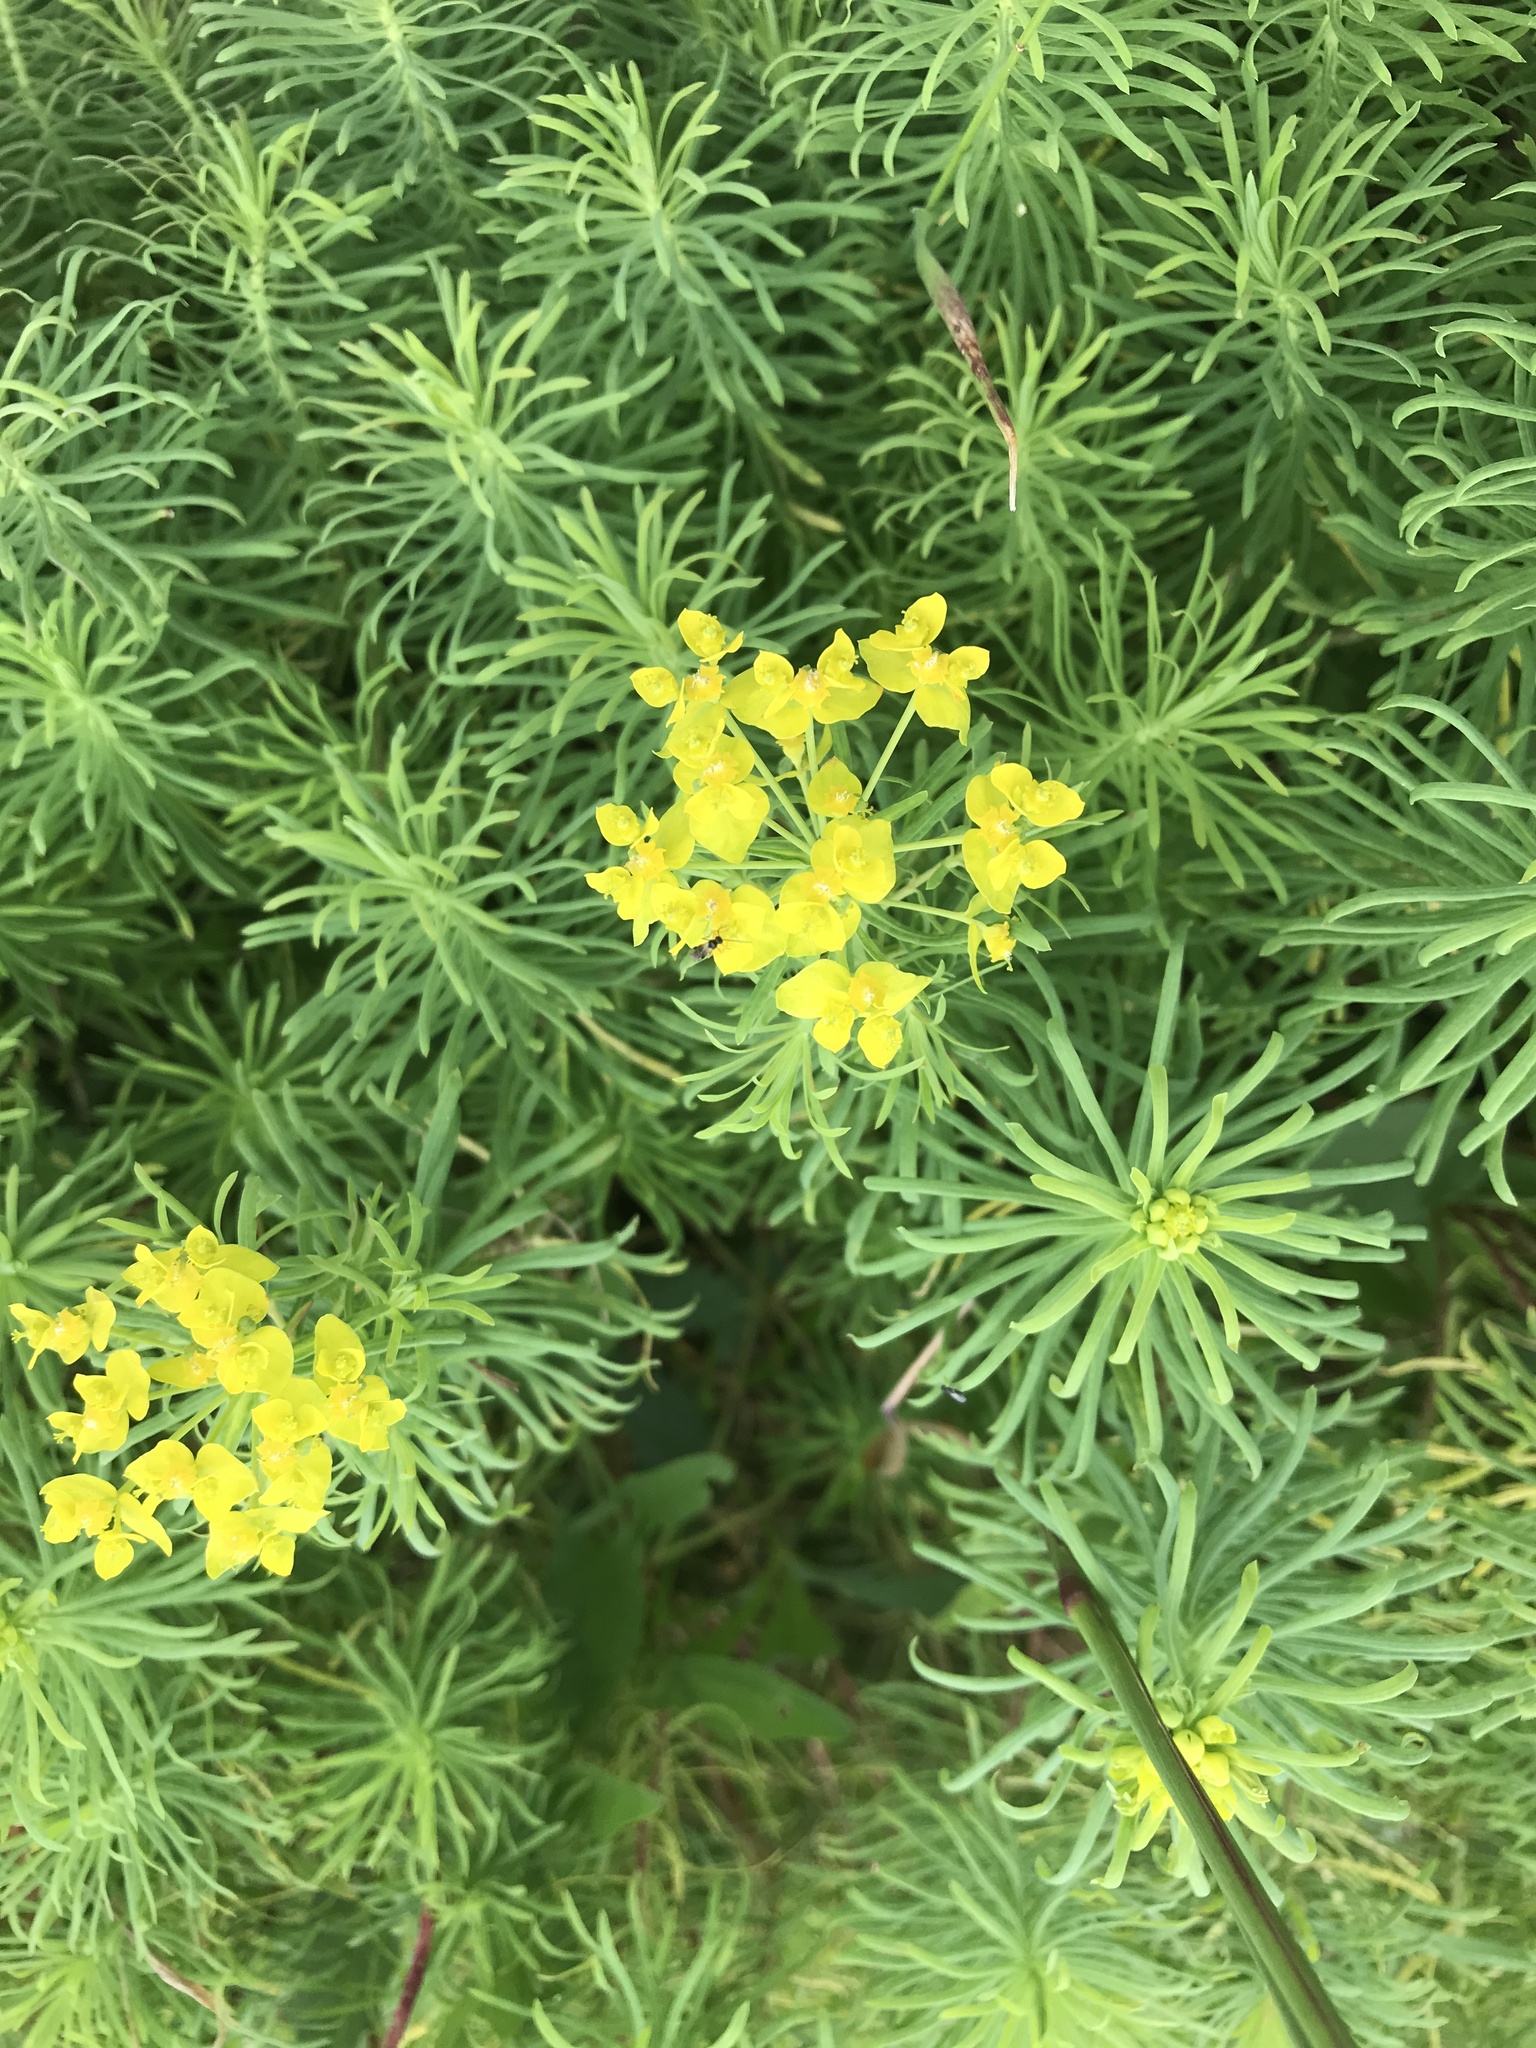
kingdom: Plantae
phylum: Tracheophyta
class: Magnoliopsida
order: Malpighiales
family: Euphorbiaceae
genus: Euphorbia
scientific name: Euphorbia cyparissias
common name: Cypress spurge
